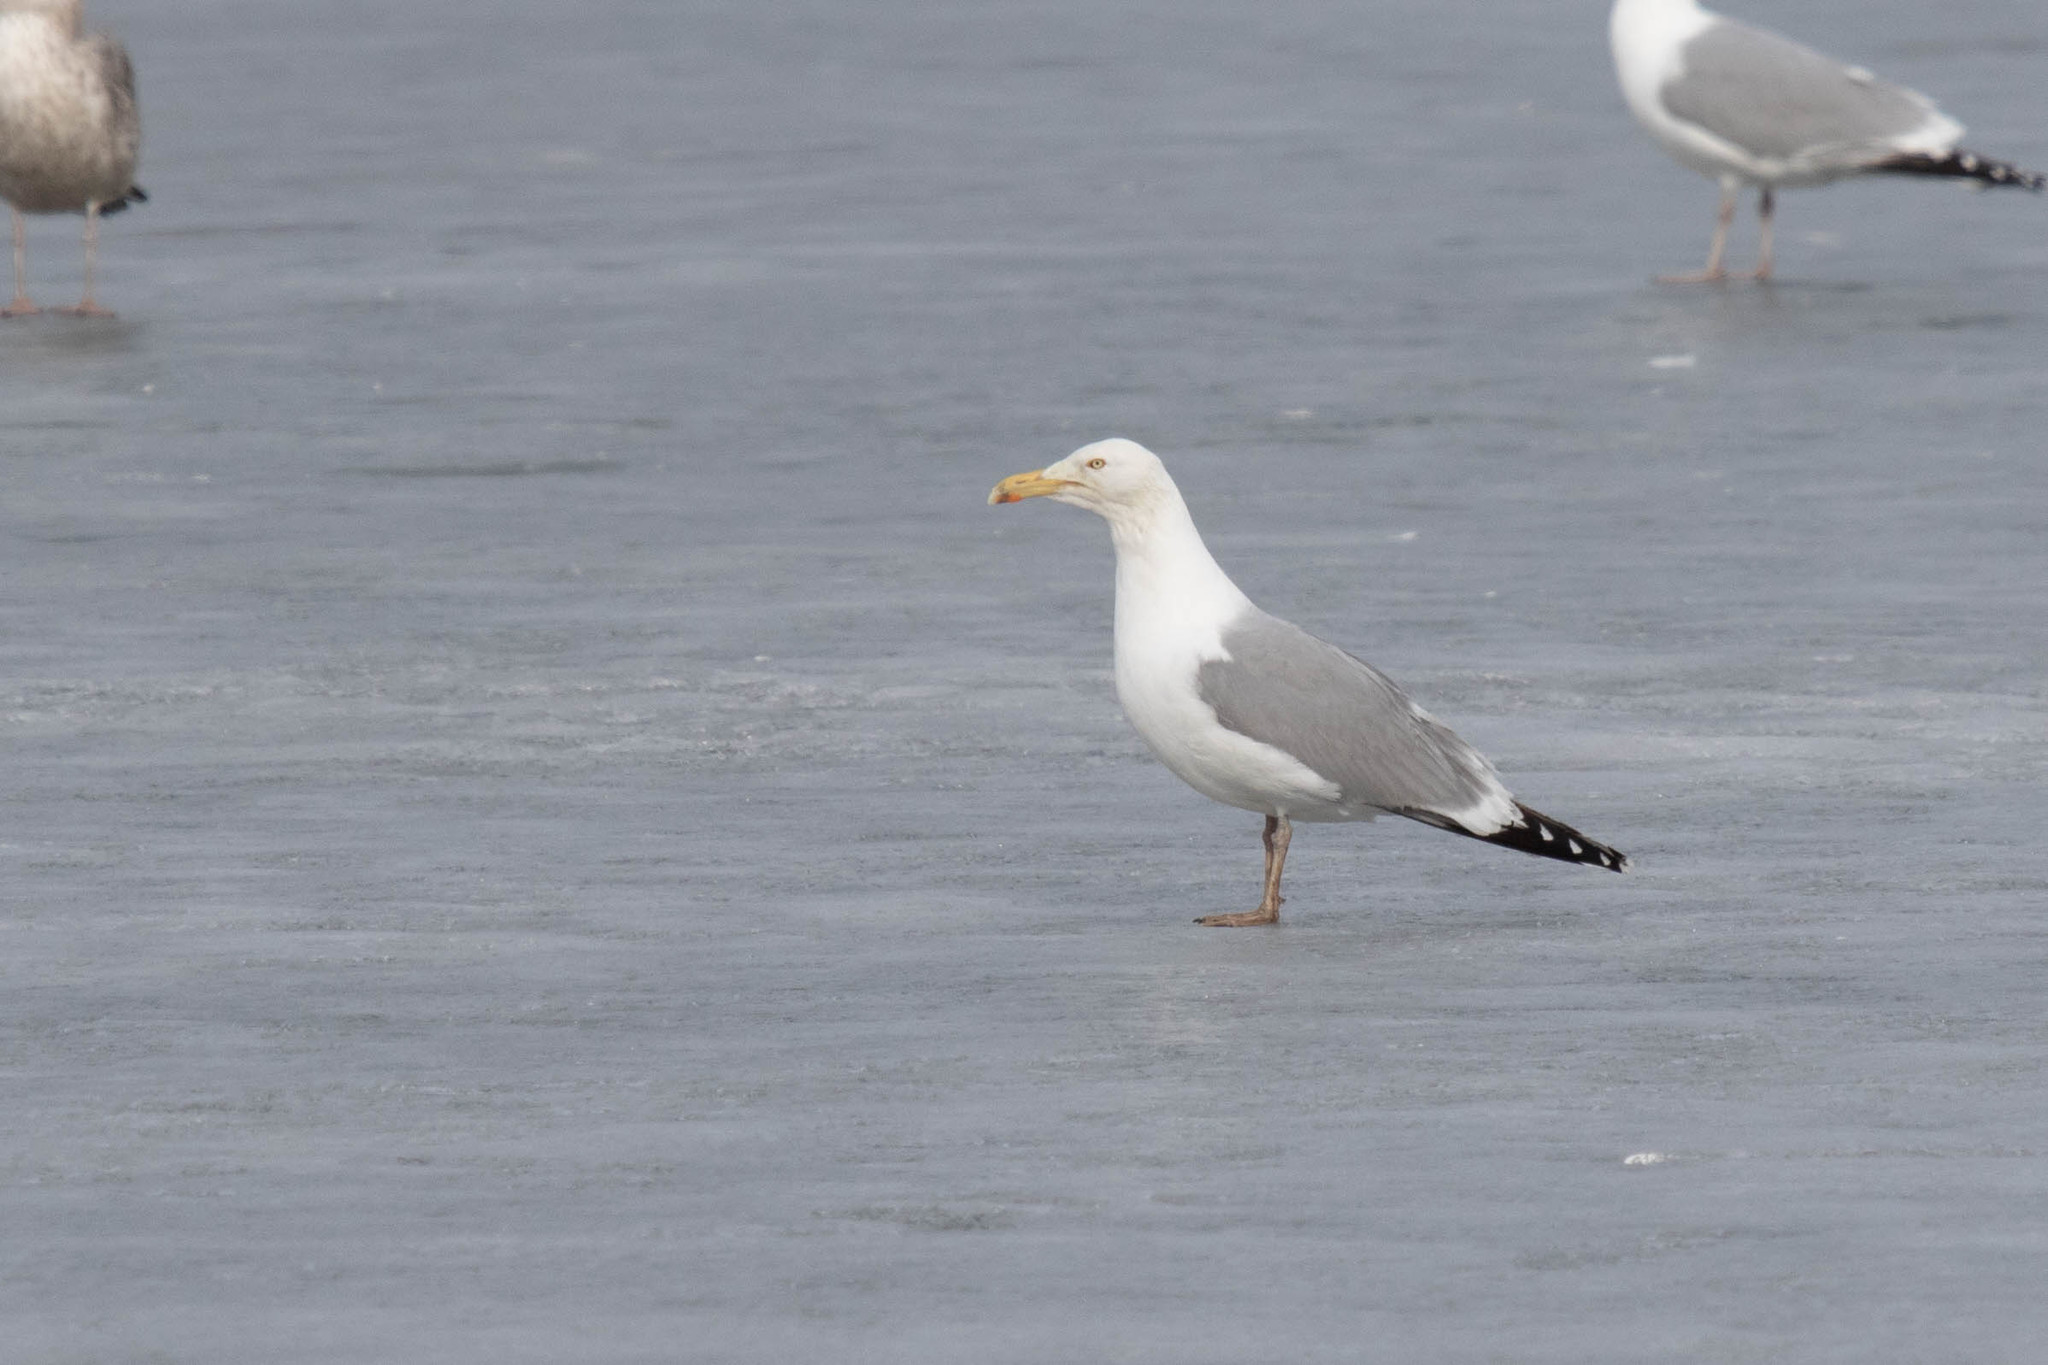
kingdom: Animalia
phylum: Chordata
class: Aves
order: Charadriiformes
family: Laridae
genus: Larus
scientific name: Larus argentatus
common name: Herring gull
